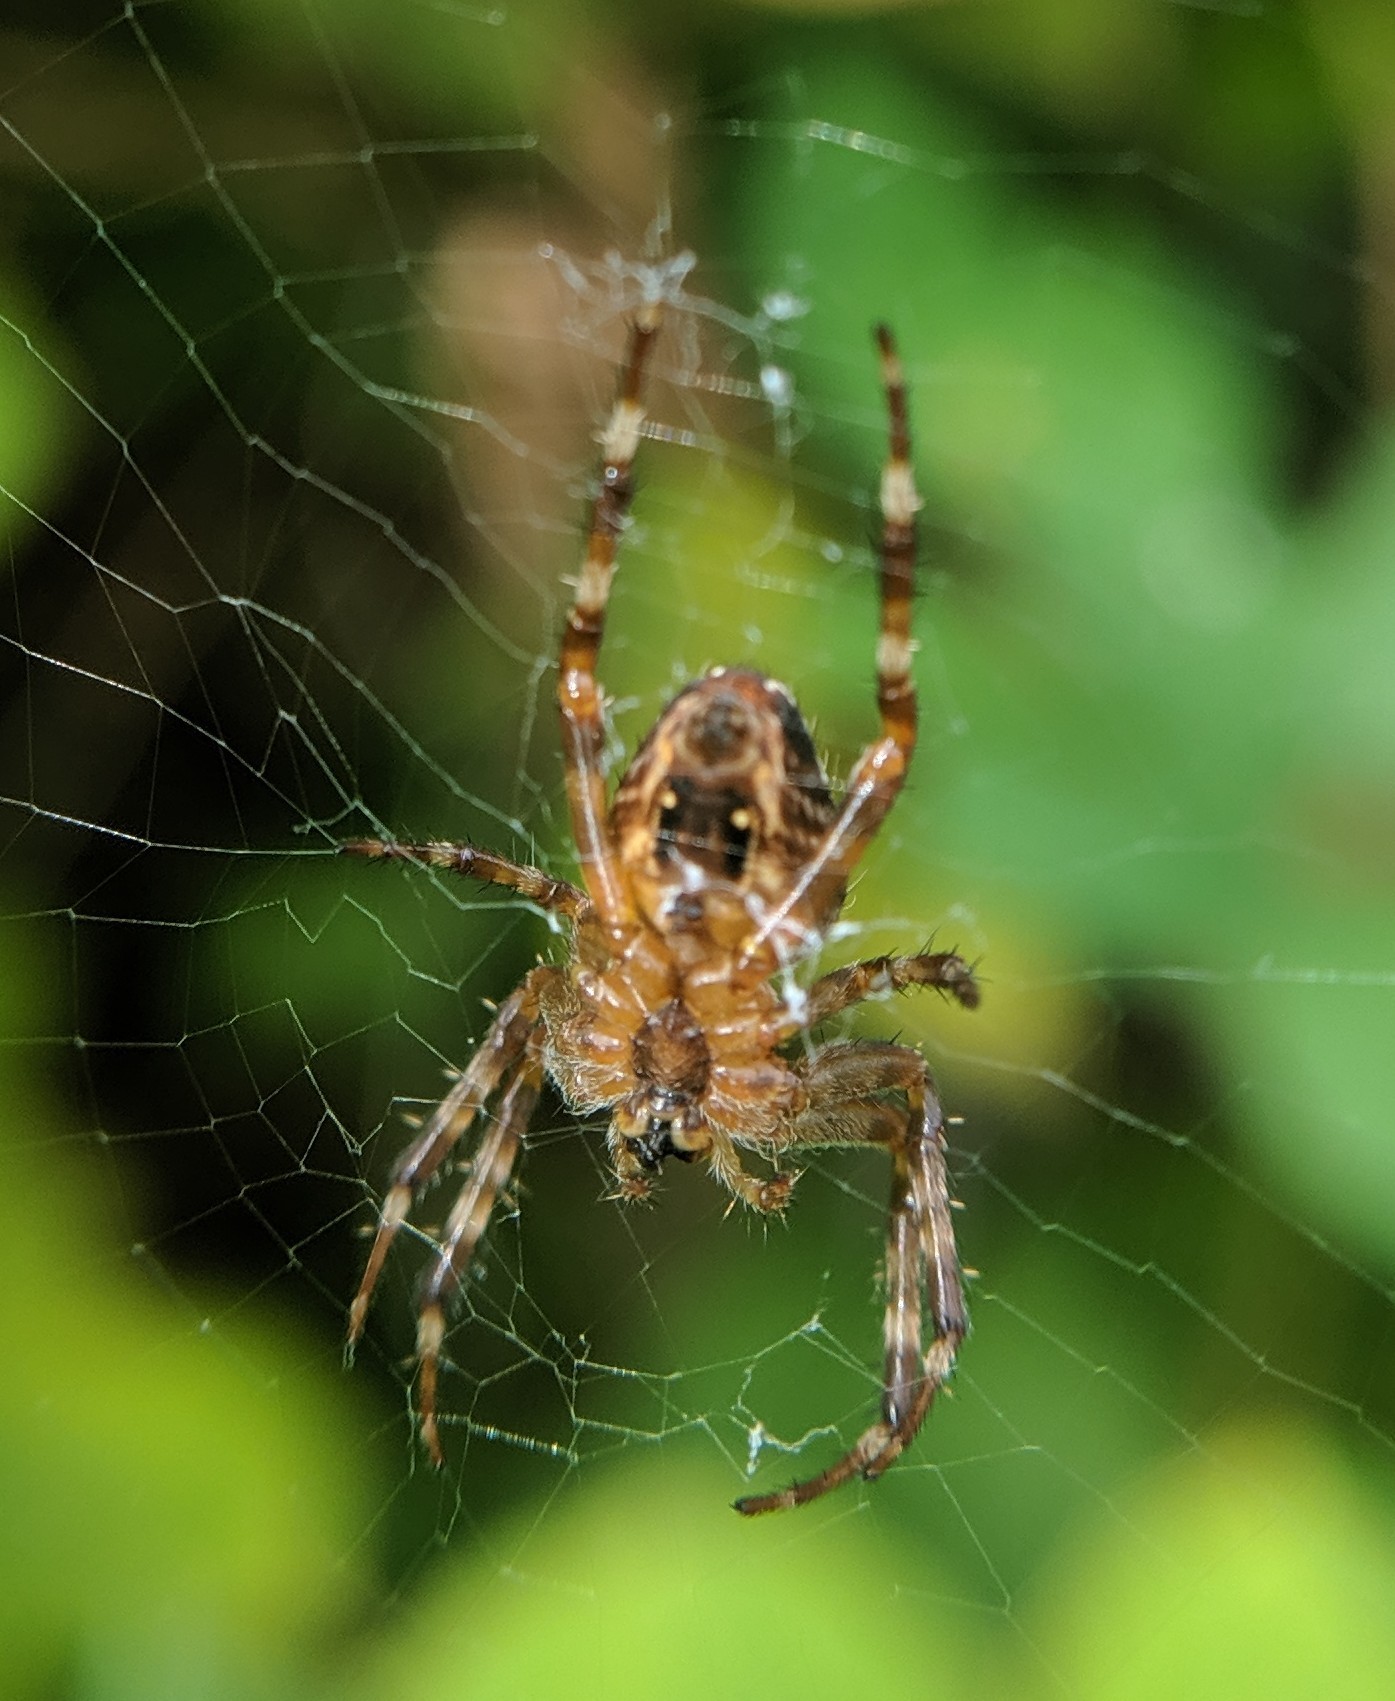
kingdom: Animalia
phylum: Arthropoda
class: Arachnida
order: Araneae
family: Araneidae
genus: Araneus
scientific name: Araneus diadematus
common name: Cross orbweaver
